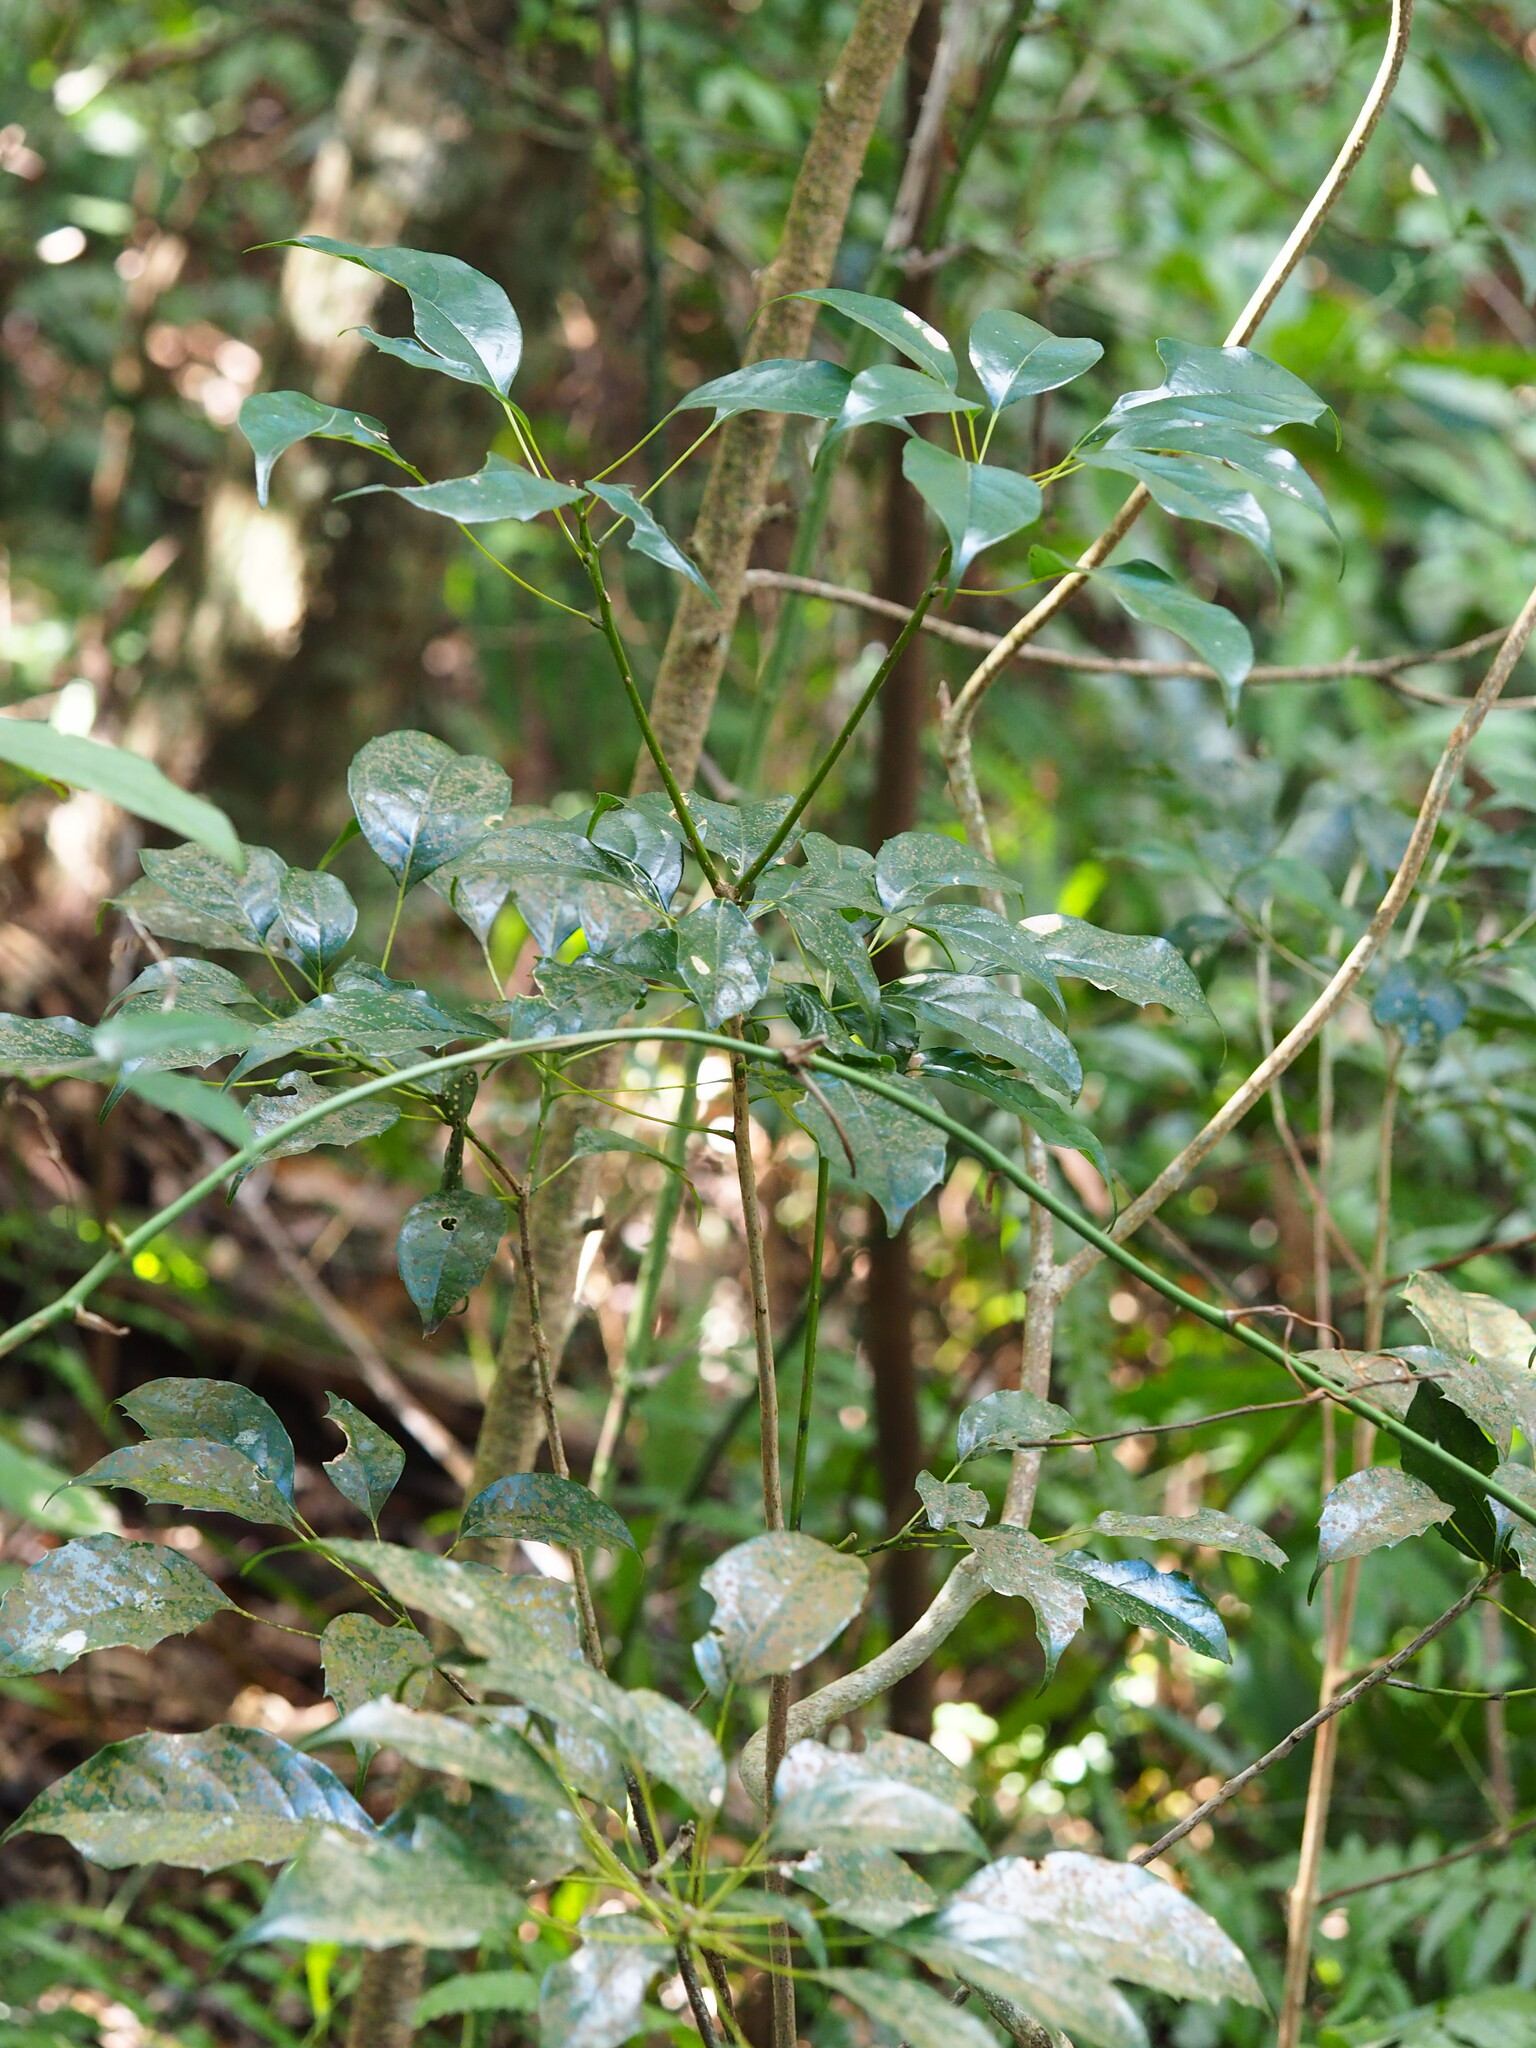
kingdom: Plantae
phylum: Tracheophyta
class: Magnoliopsida
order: Proteales
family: Sabiaceae
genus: Meliosma
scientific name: Meliosma squamulata
